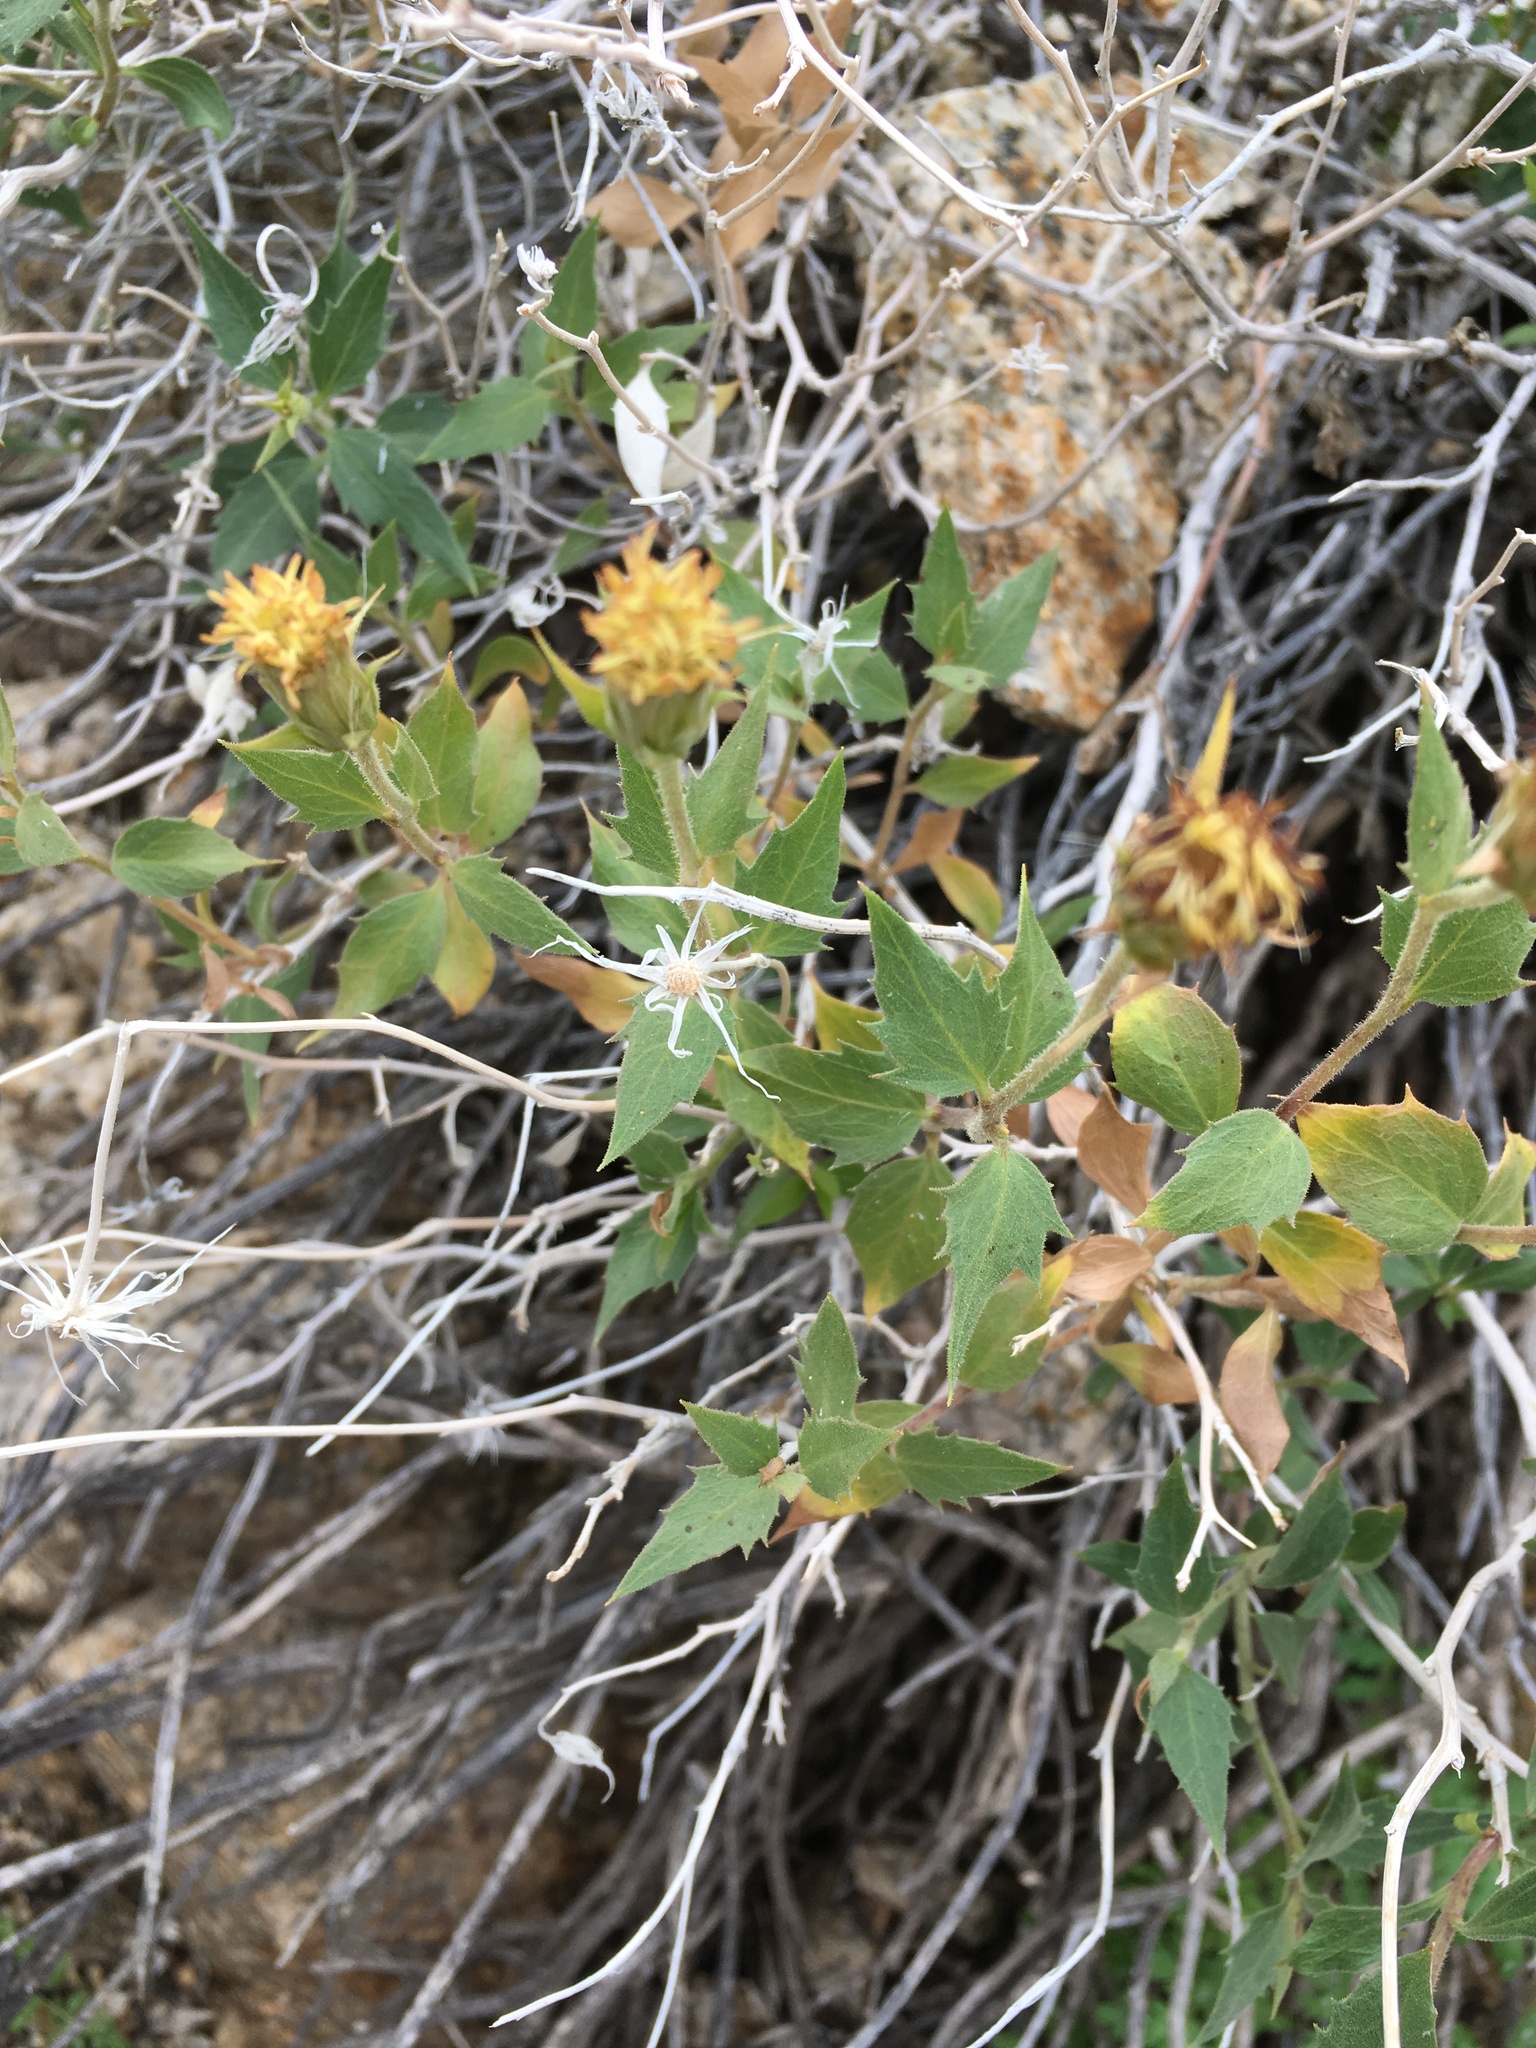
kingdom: Plantae
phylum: Tracheophyta
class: Magnoliopsida
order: Asterales
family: Asteraceae
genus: Brickellia
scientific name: Brickellia atractyloides
